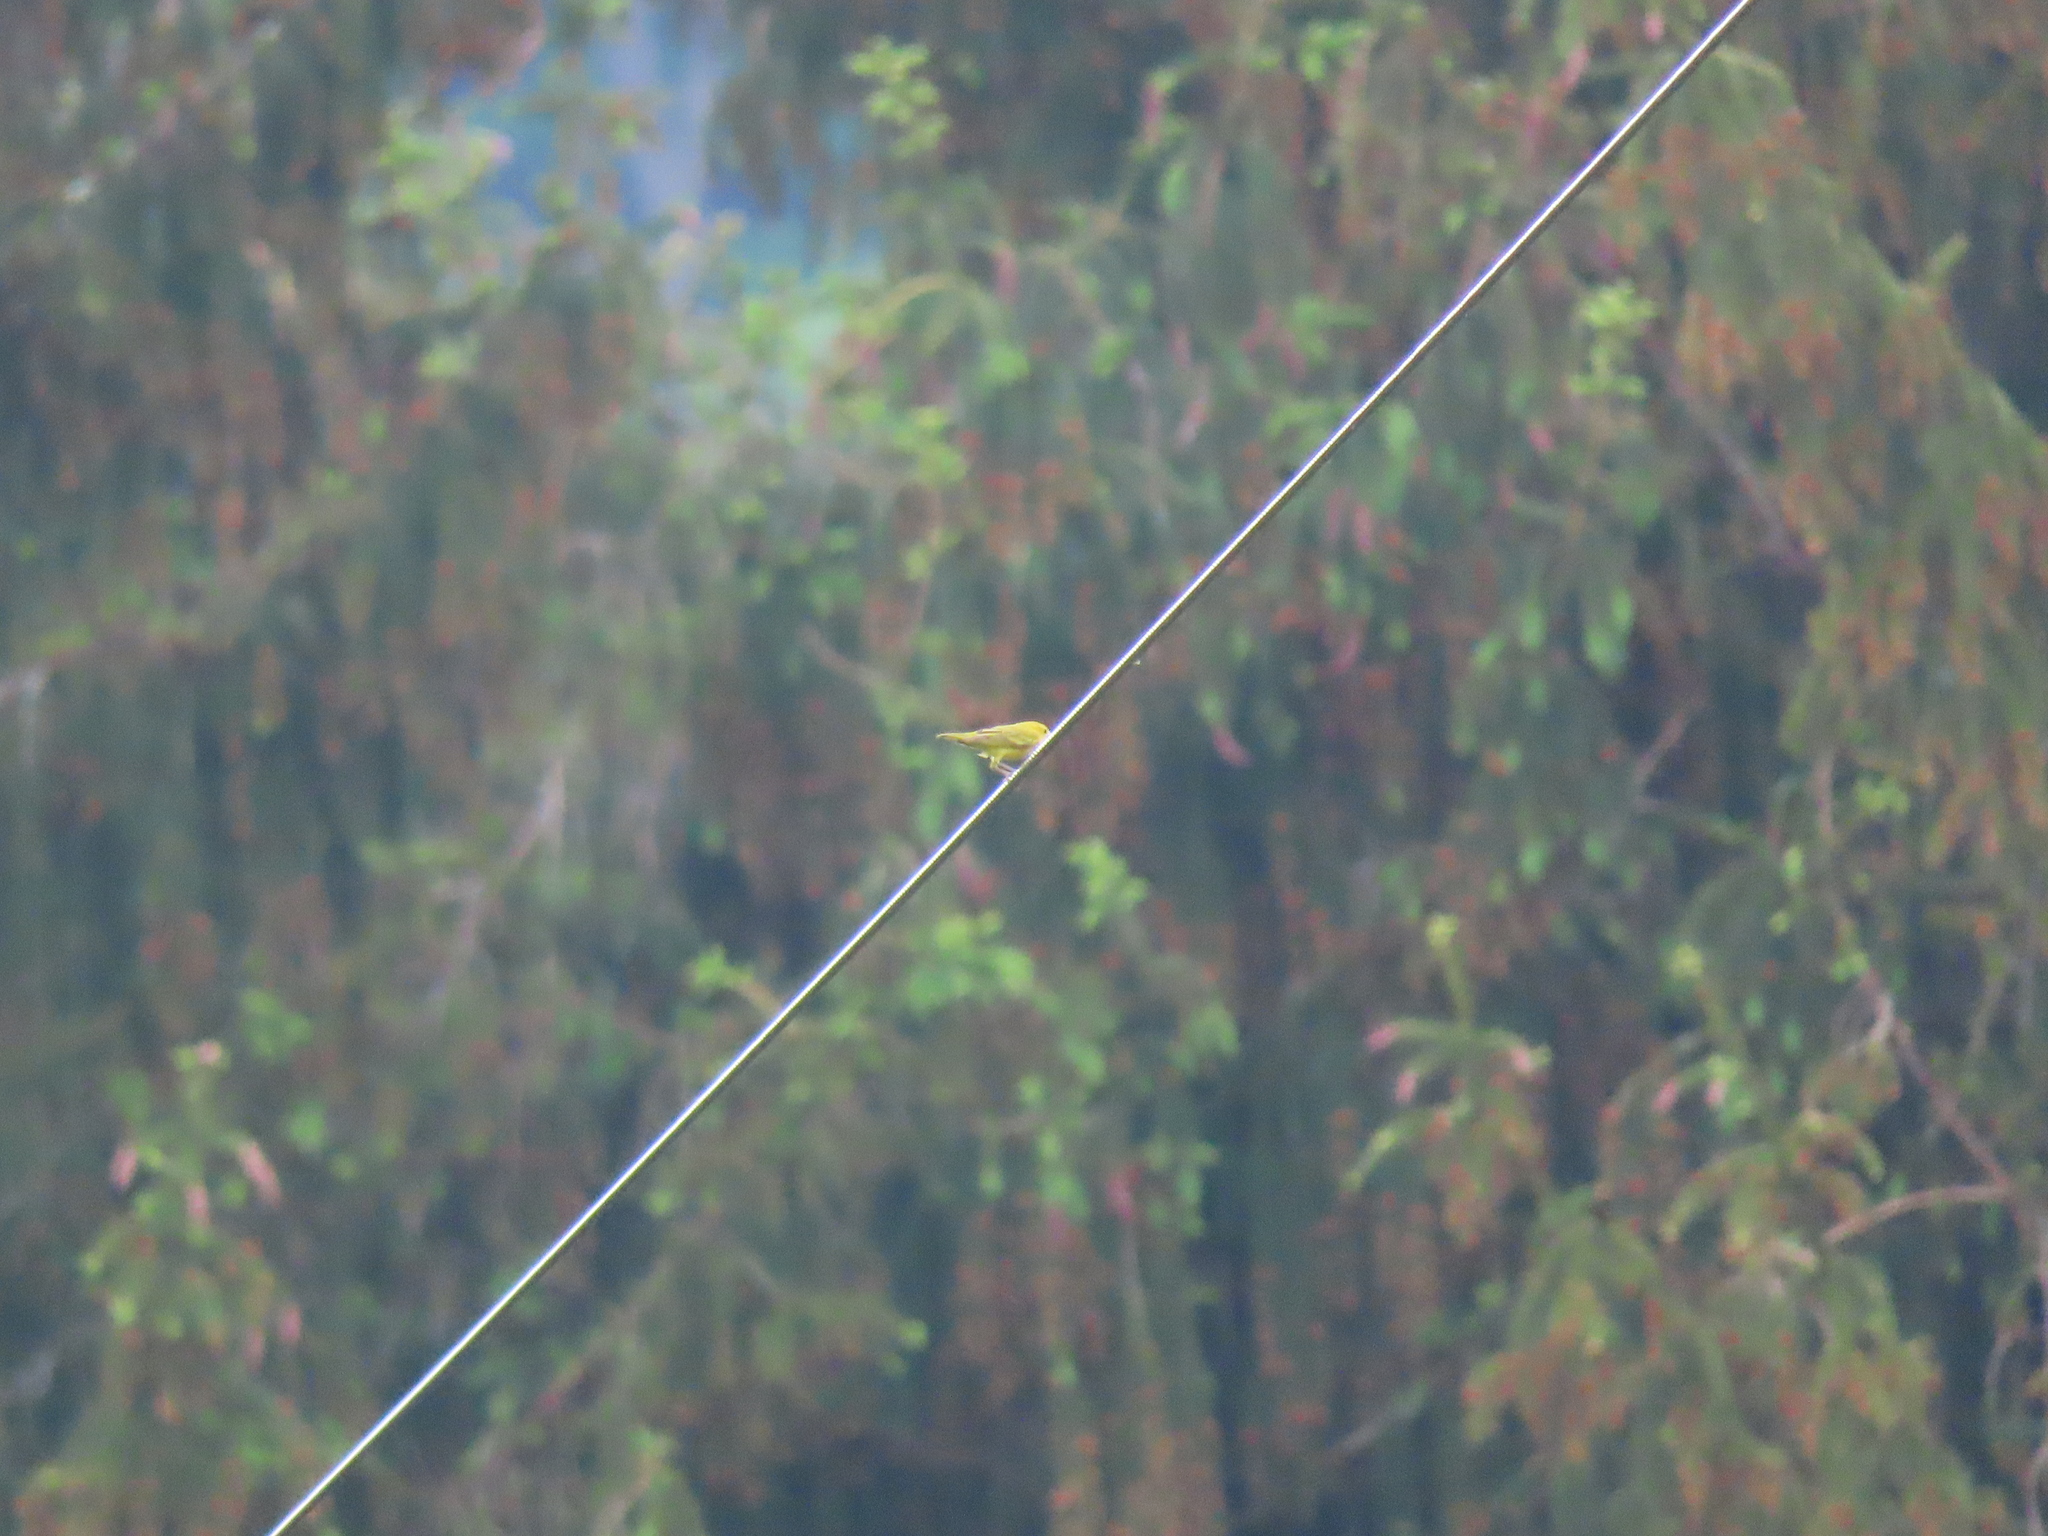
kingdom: Animalia
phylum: Chordata
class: Aves
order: Passeriformes
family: Parulidae
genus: Setophaga
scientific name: Setophaga petechia
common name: Yellow warbler
